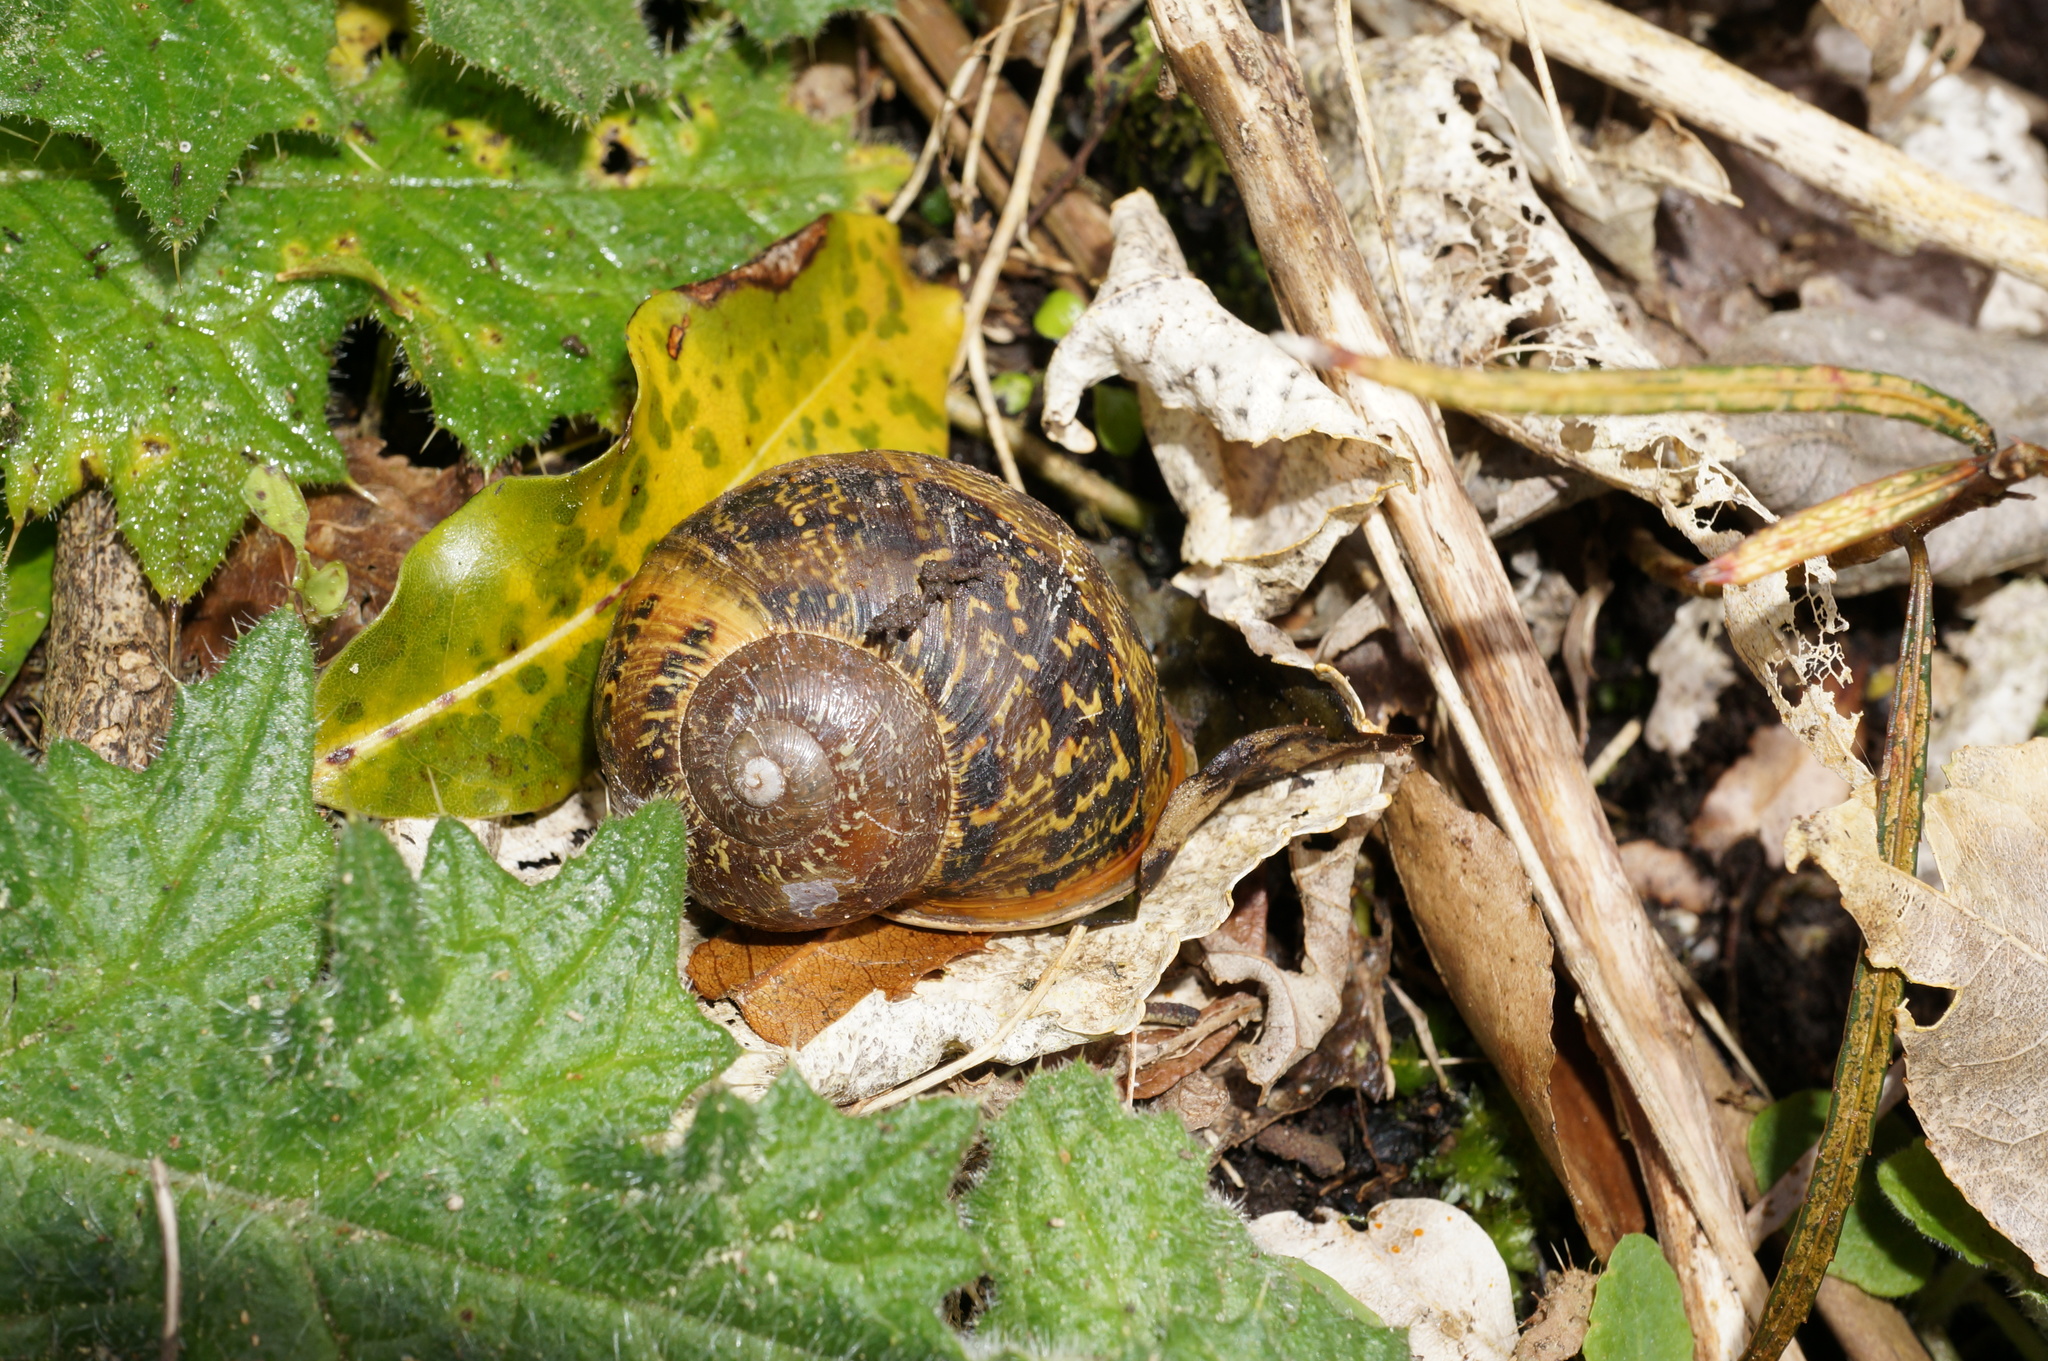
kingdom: Animalia
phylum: Mollusca
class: Gastropoda
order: Stylommatophora
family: Helicidae
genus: Cornu
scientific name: Cornu aspersum
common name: Brown garden snail
